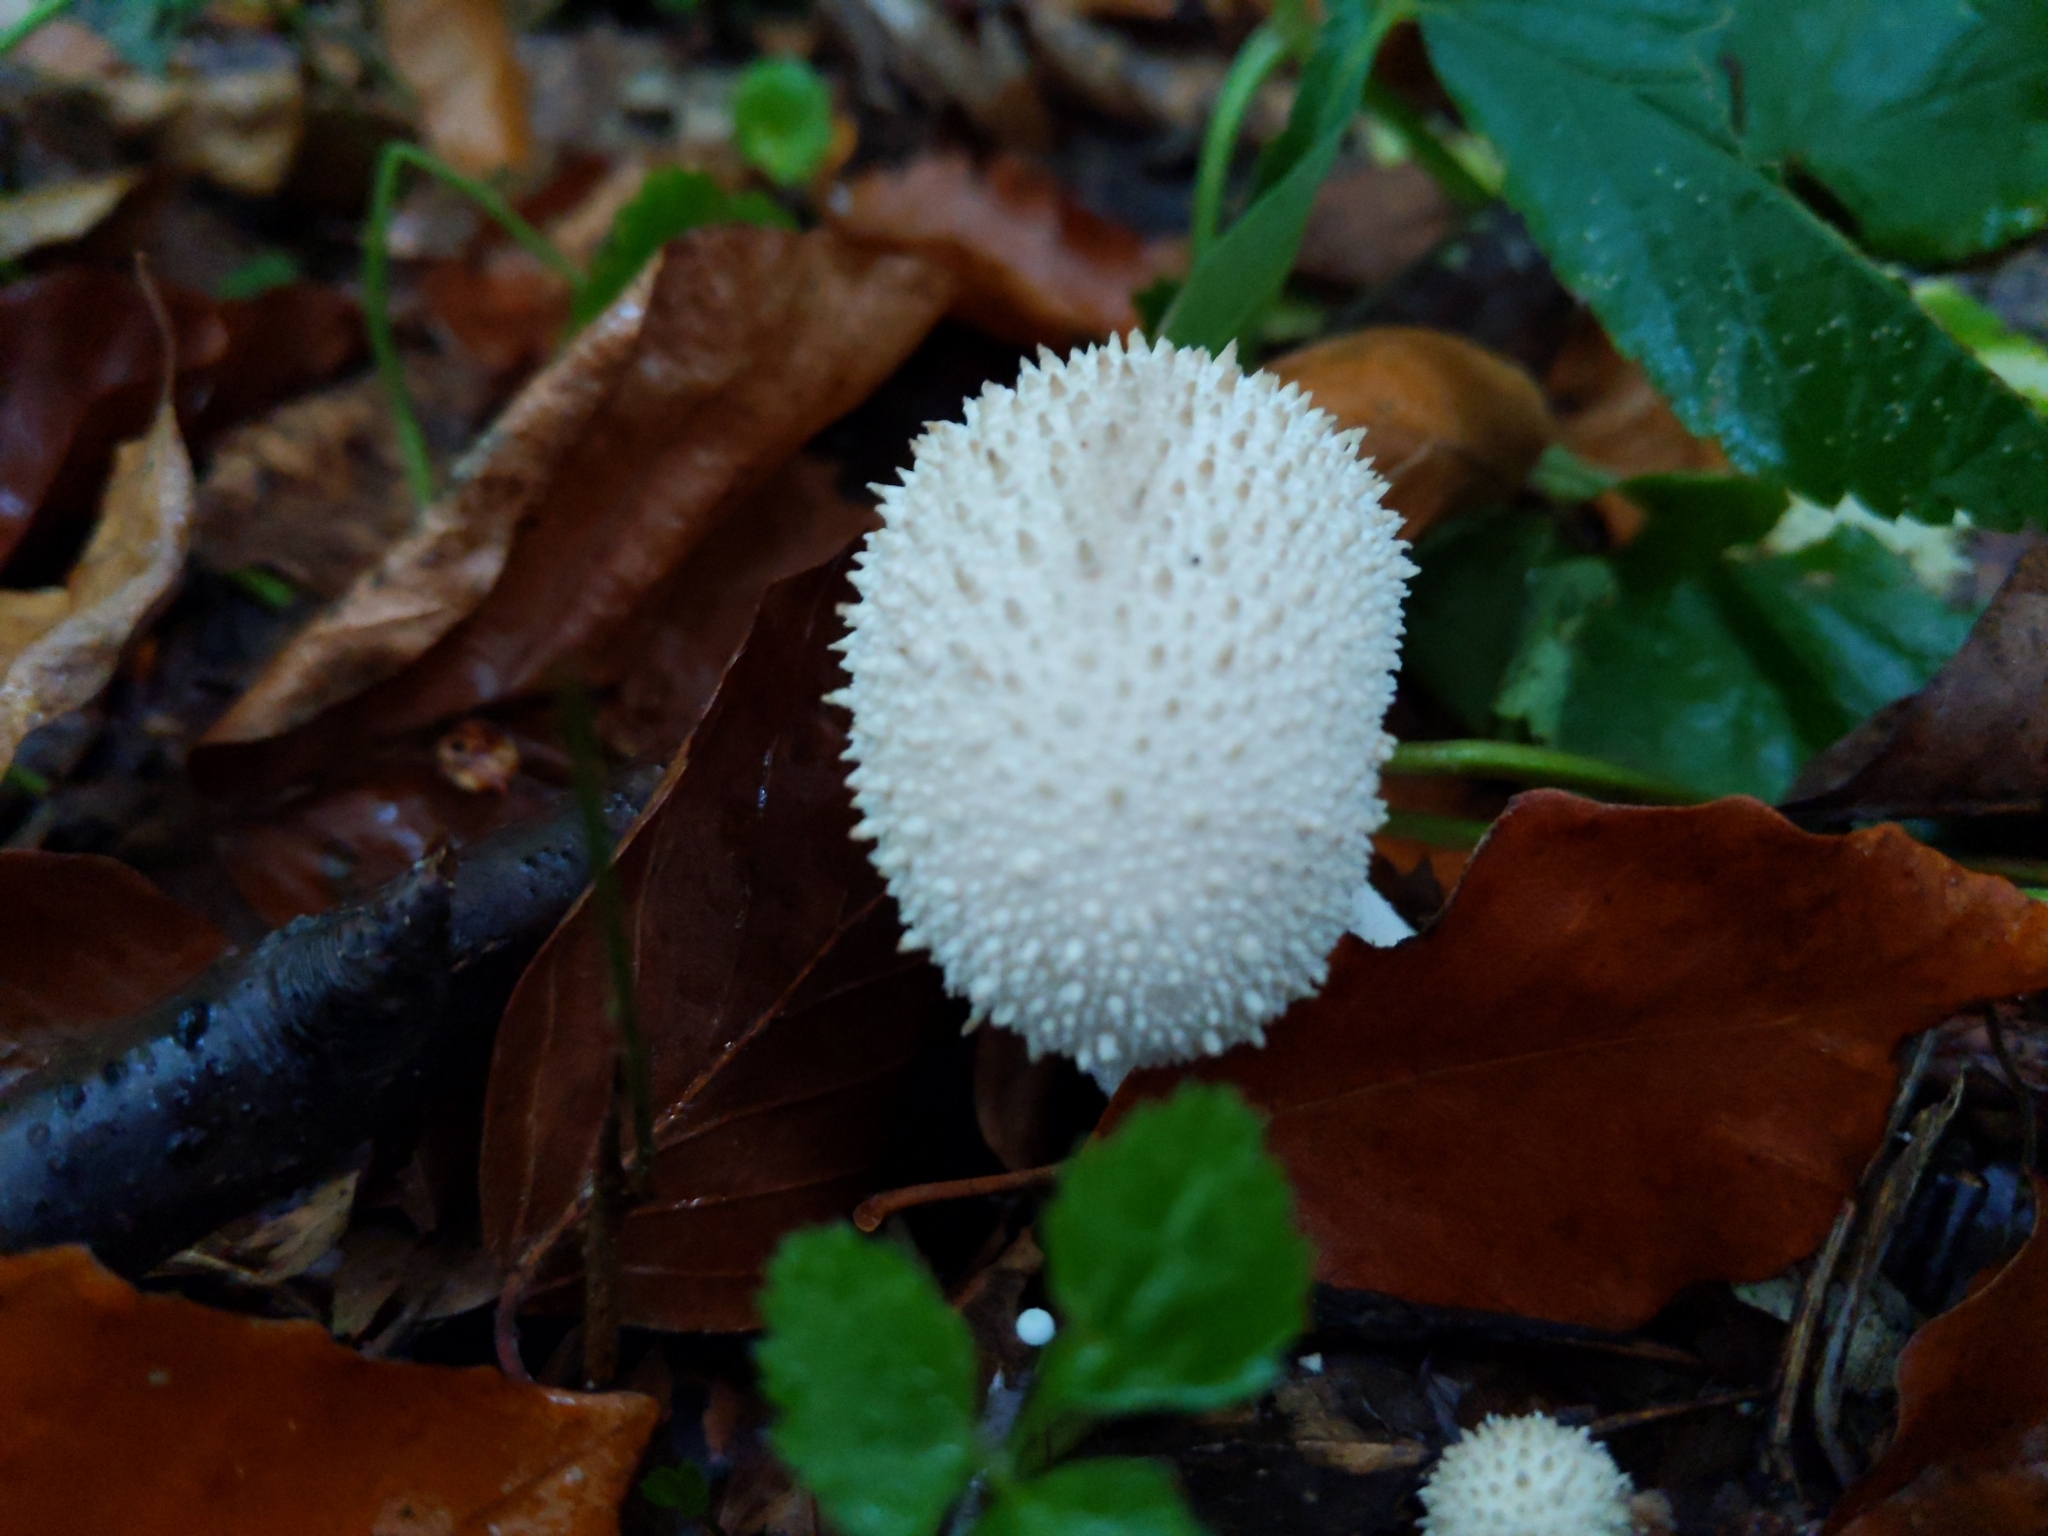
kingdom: Fungi
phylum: Basidiomycota
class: Agaricomycetes
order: Agaricales
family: Lycoperdaceae
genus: Lycoperdon
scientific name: Lycoperdon perlatum
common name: Common puffball
